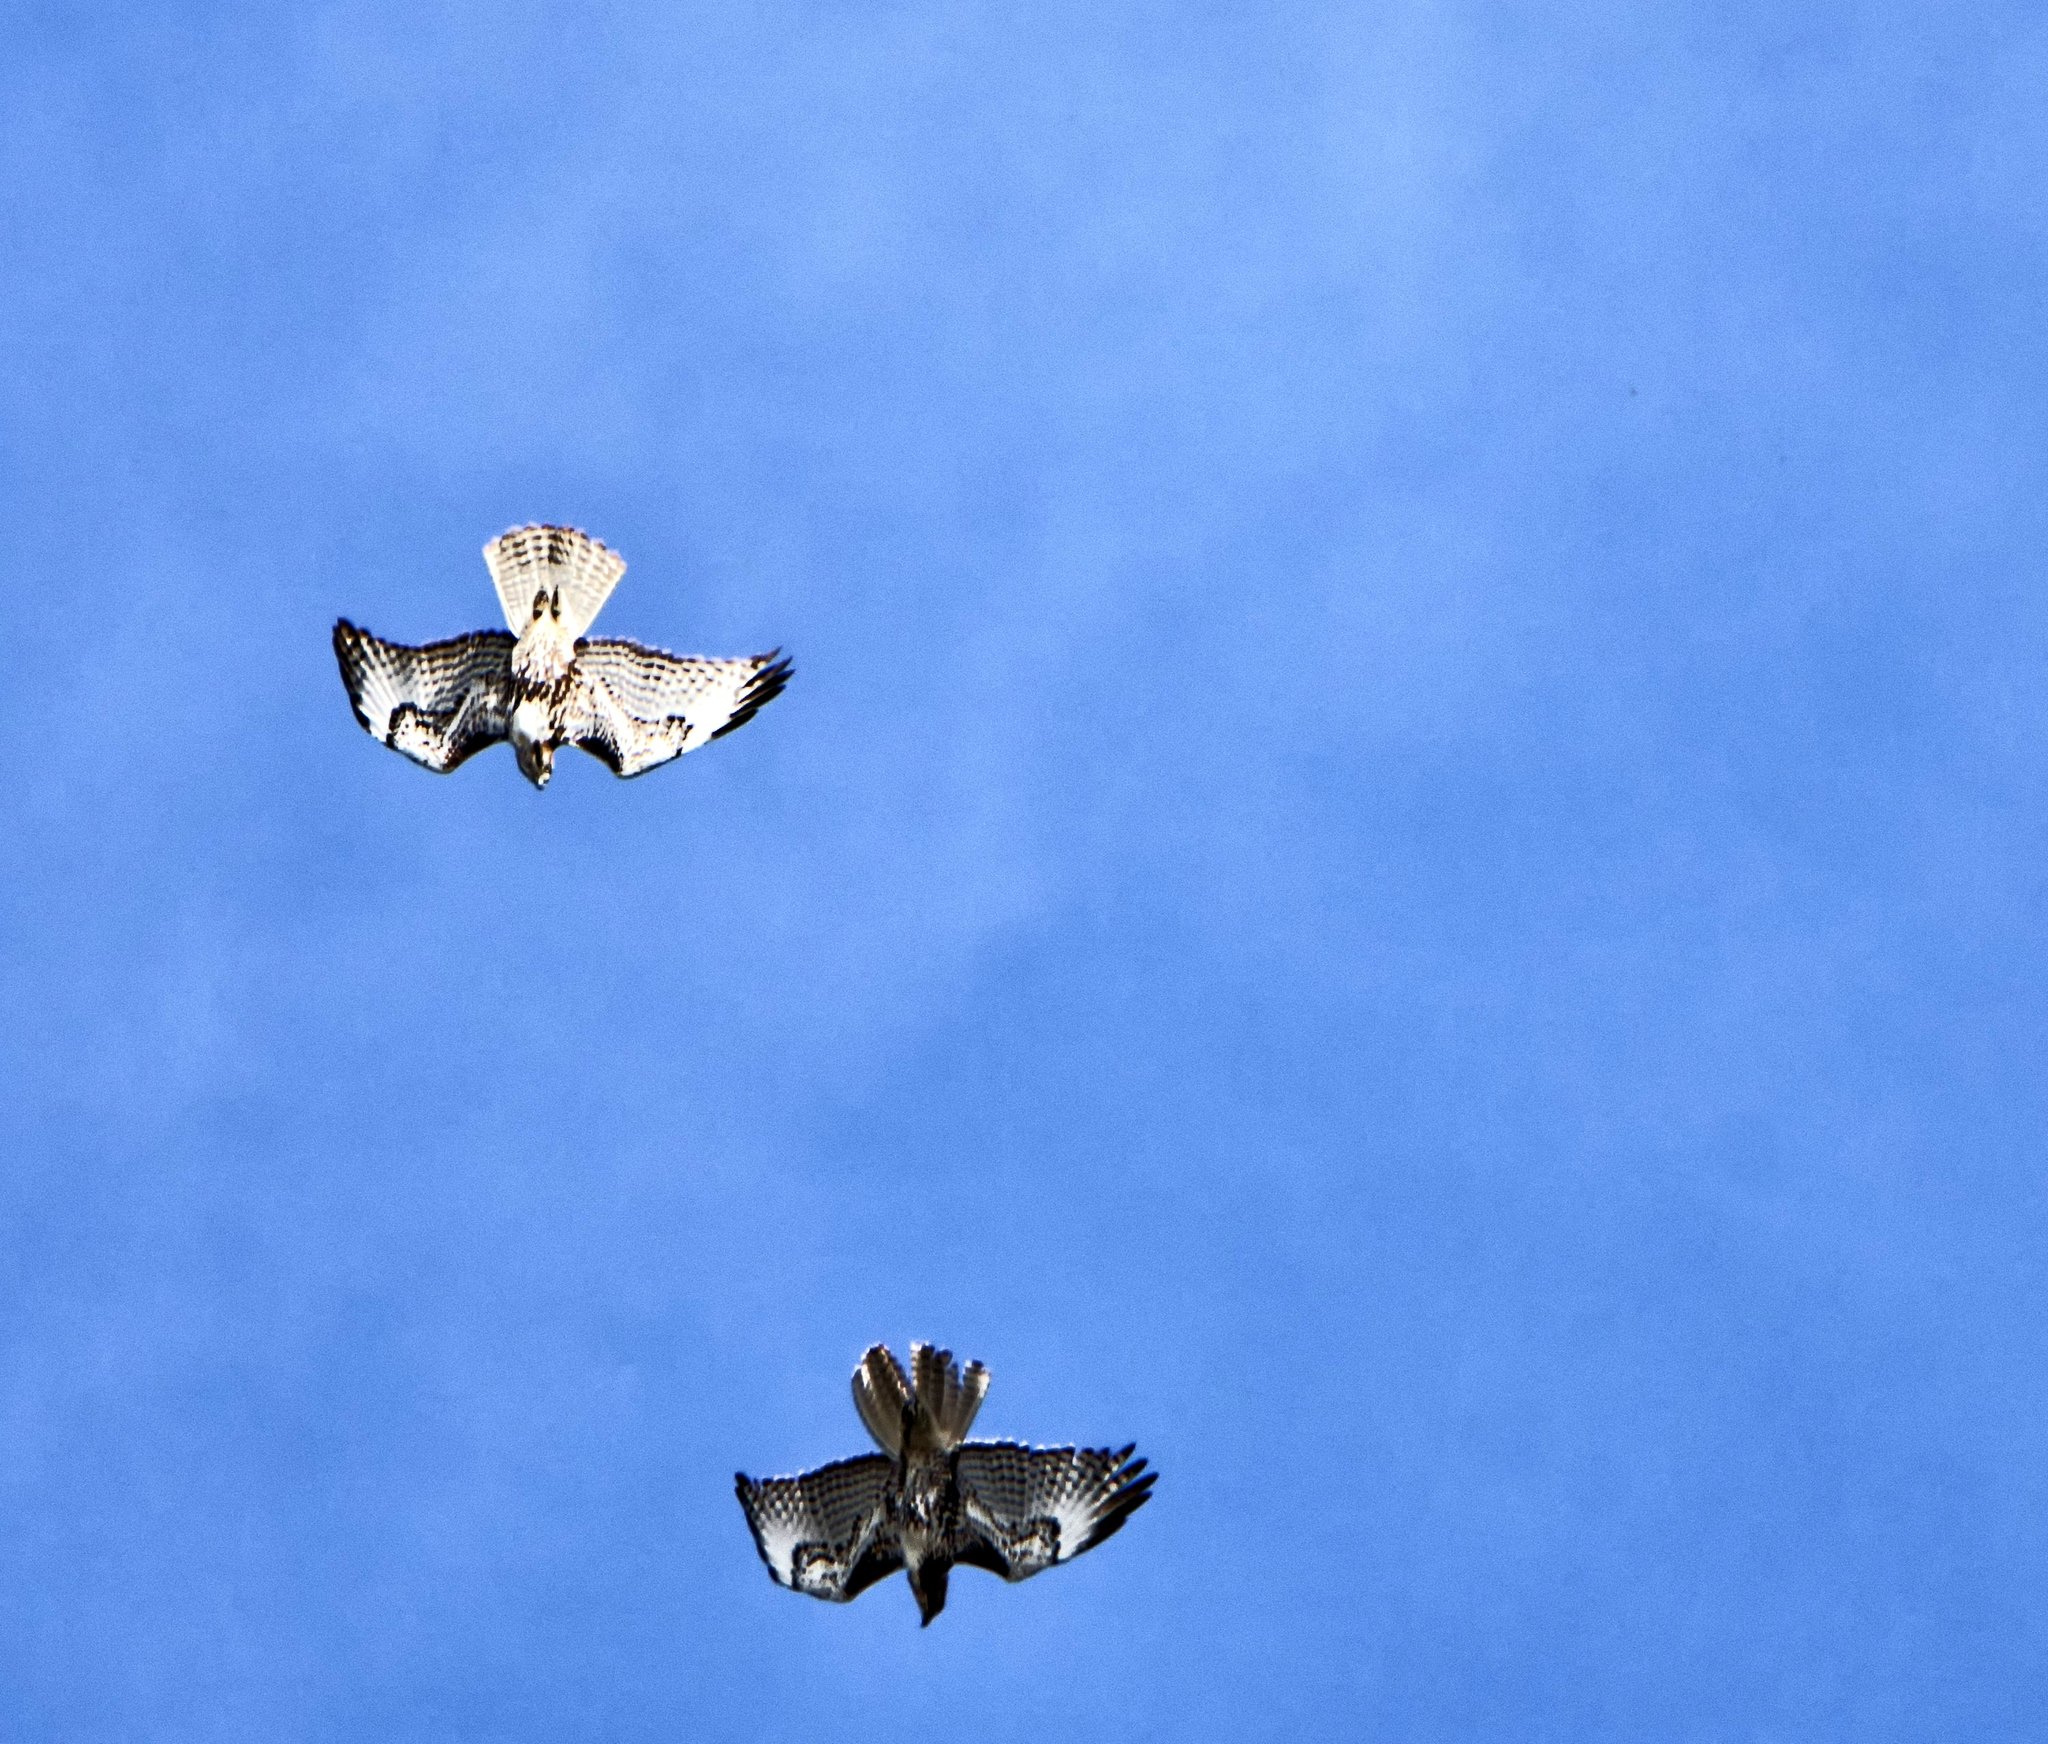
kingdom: Animalia
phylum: Chordata
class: Aves
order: Accipitriformes
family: Accipitridae
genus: Buteo
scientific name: Buteo jamaicensis
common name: Red-tailed hawk
